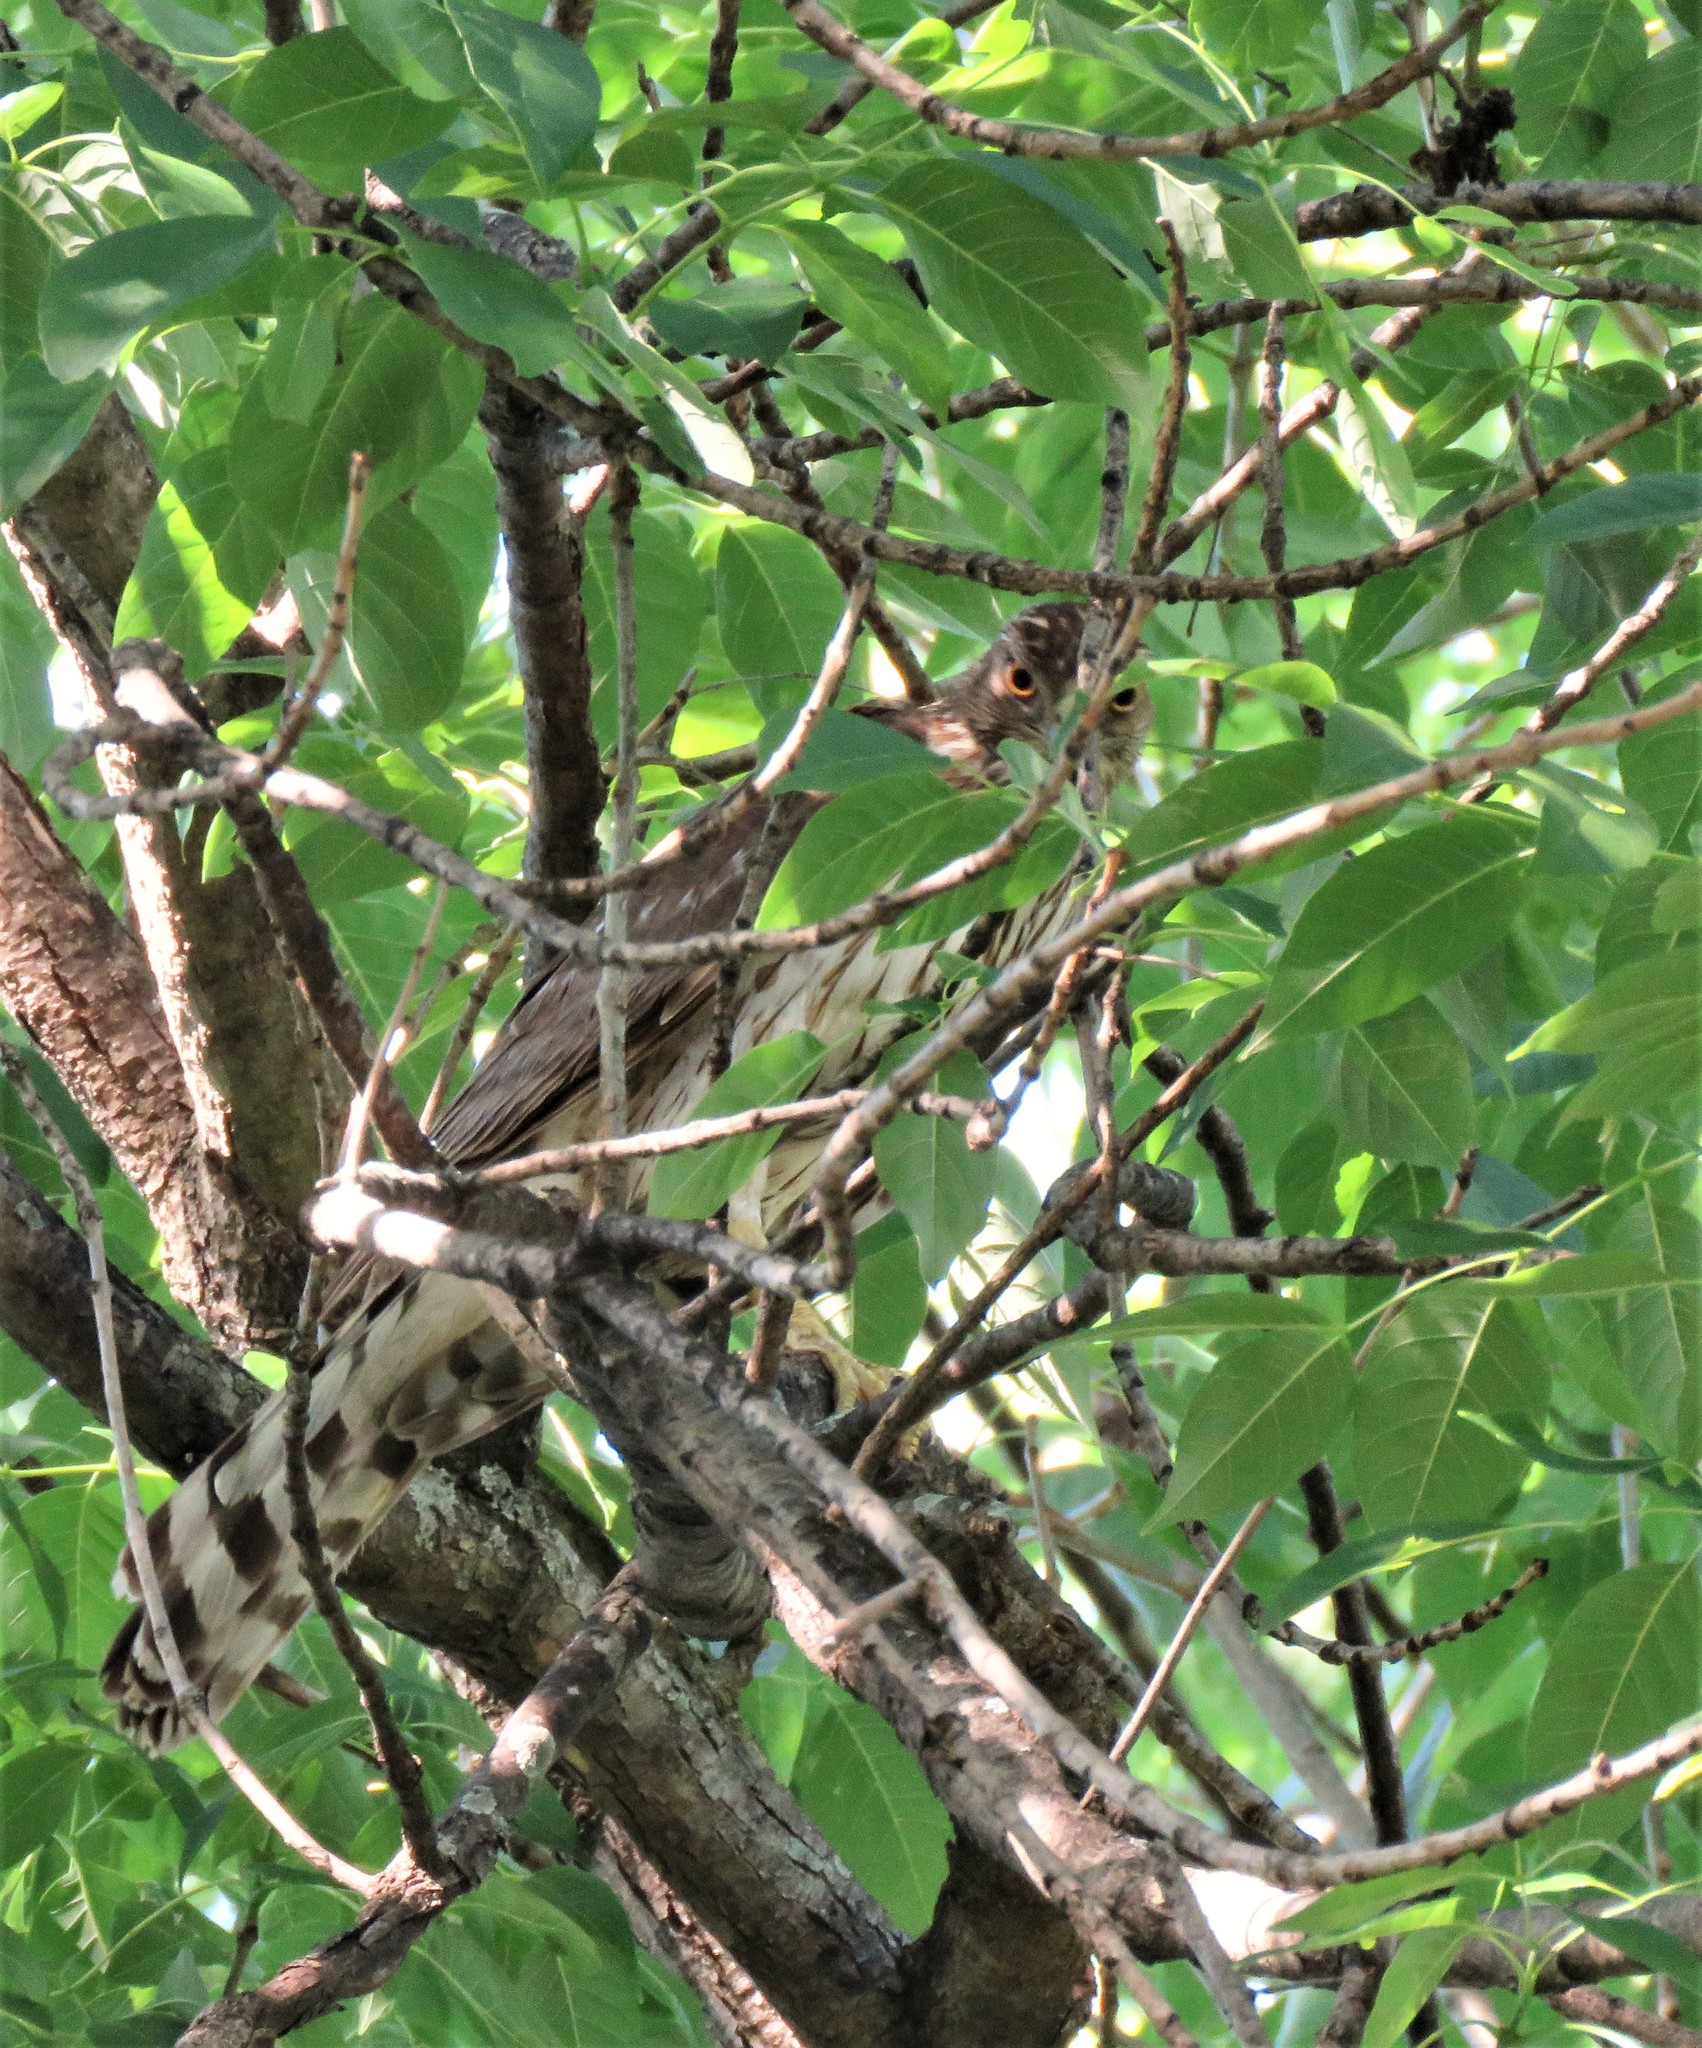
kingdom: Animalia
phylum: Chordata
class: Aves
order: Accipitriformes
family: Accipitridae
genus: Accipiter
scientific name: Accipiter cooperii
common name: Cooper's hawk
